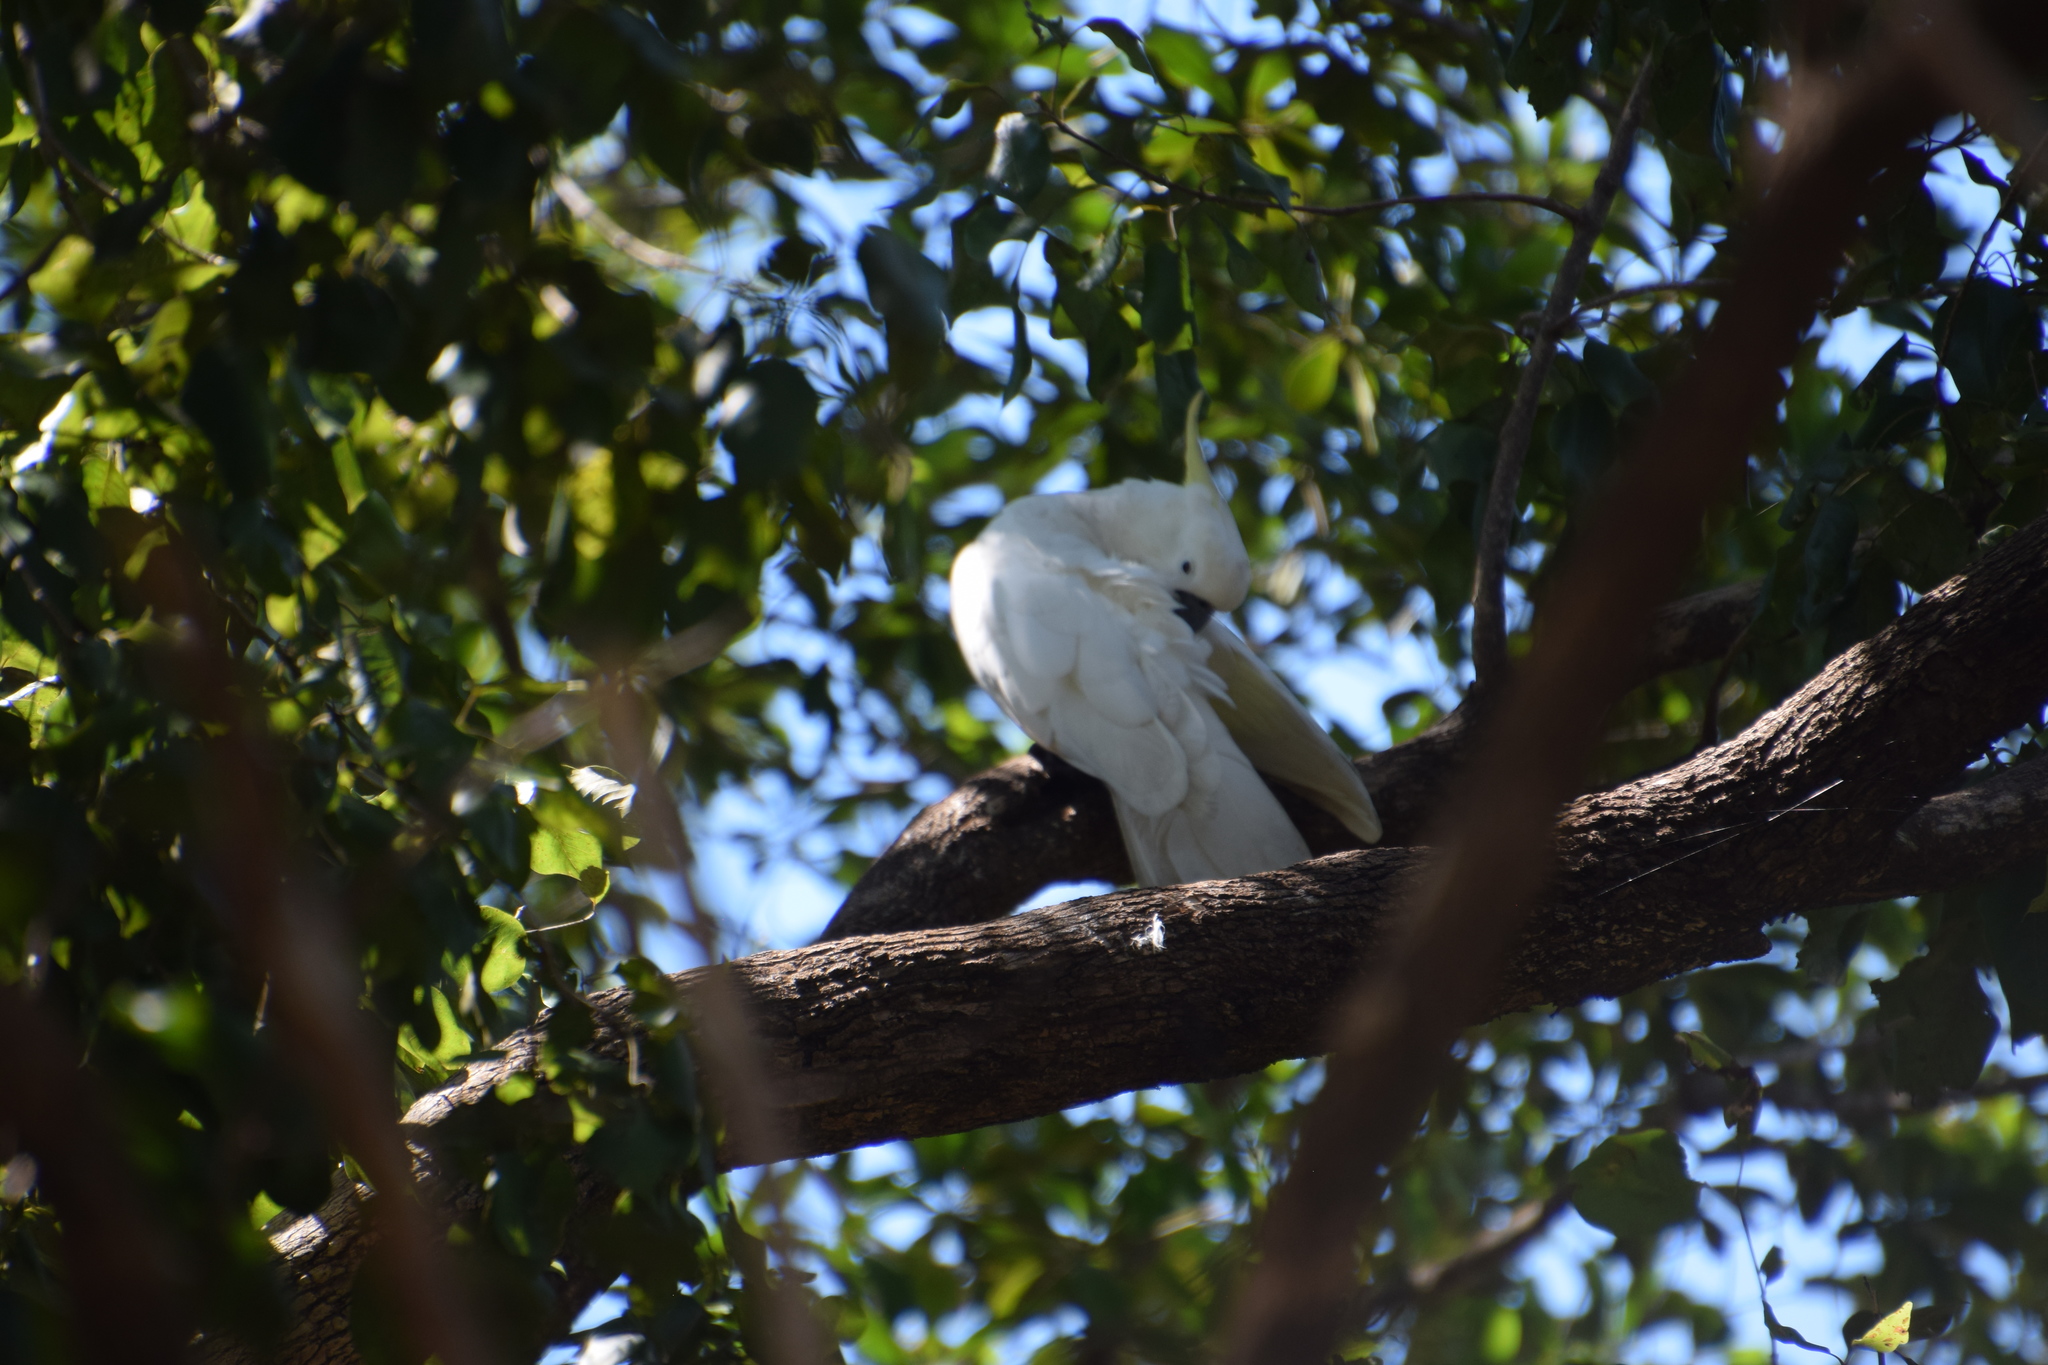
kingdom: Animalia
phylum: Chordata
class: Aves
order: Psittaciformes
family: Psittacidae
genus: Cacatua
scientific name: Cacatua galerita
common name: Sulphur-crested cockatoo
